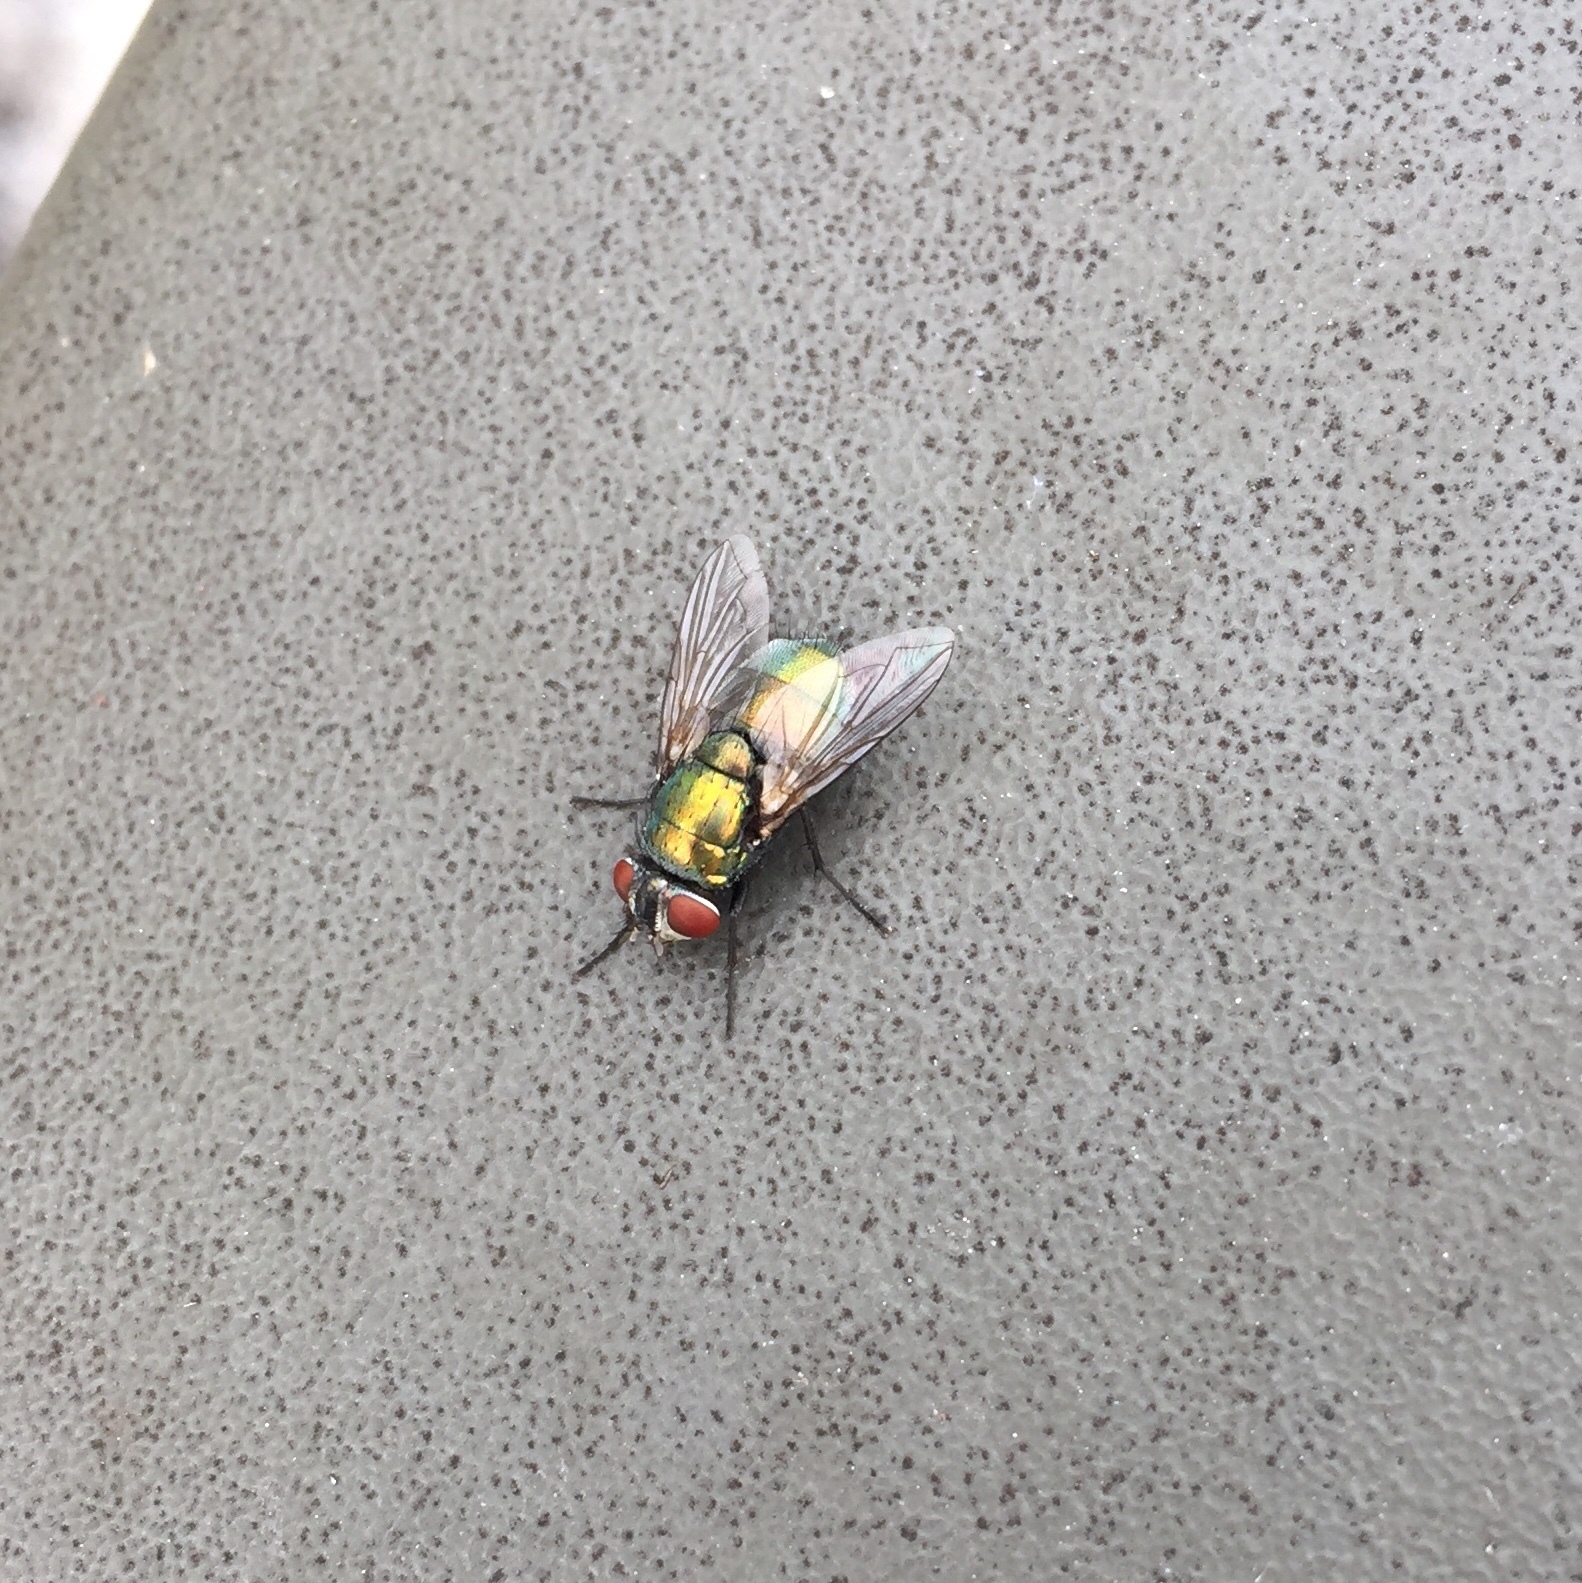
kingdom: Animalia
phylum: Arthropoda
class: Insecta
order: Diptera
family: Calliphoridae
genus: Lucilia
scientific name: Lucilia sericata
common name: Blow fly
